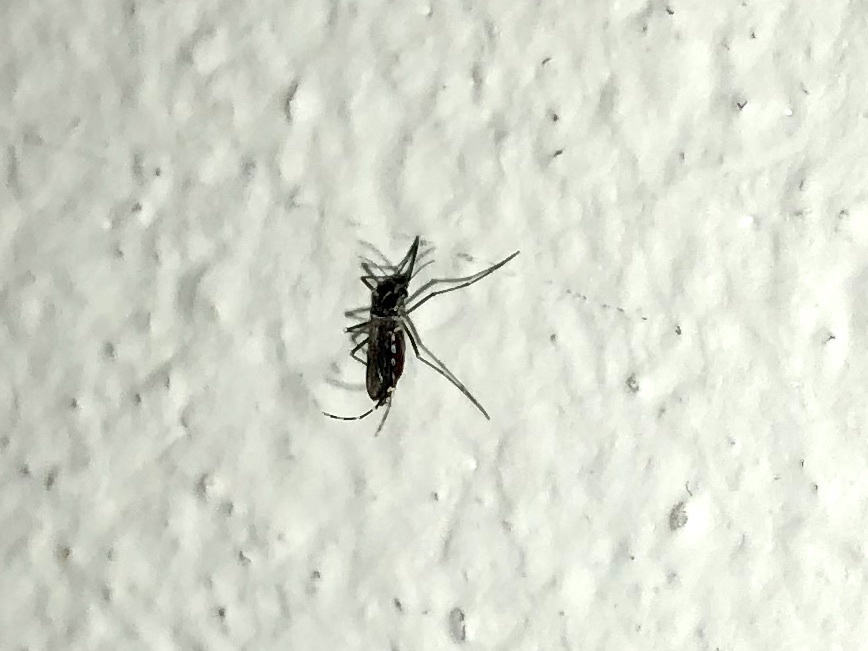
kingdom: Animalia
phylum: Arthropoda
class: Insecta
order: Diptera
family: Culicidae
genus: Aedes
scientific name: Aedes albopictus
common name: Tiger mosquito
